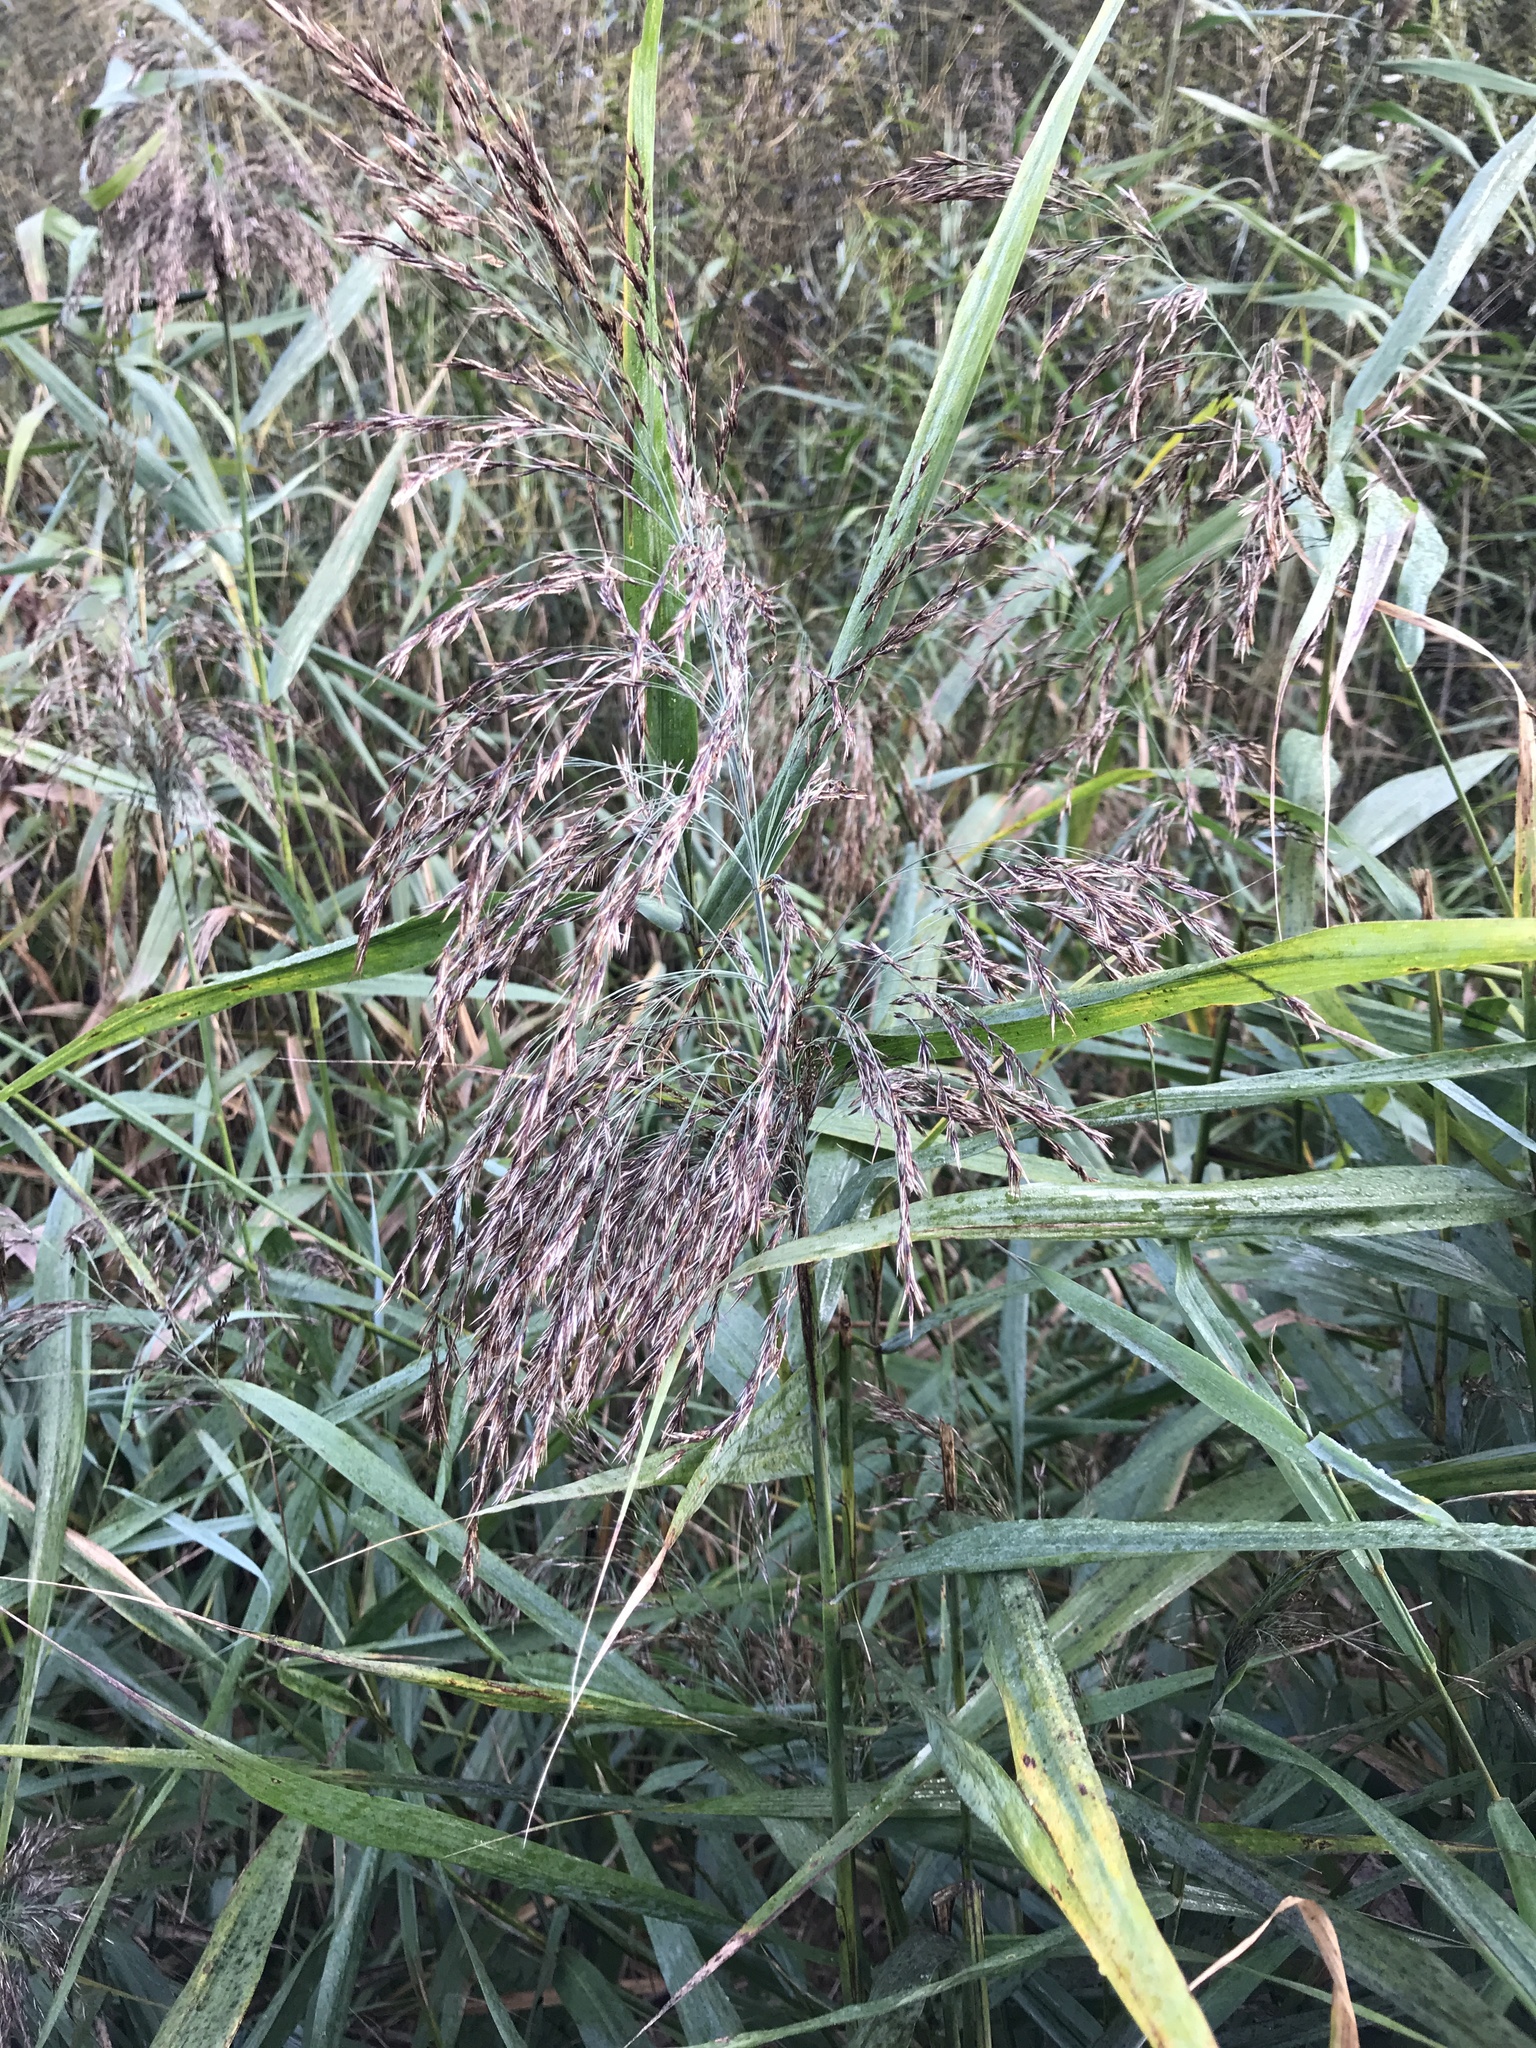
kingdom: Plantae
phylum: Tracheophyta
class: Liliopsida
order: Poales
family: Poaceae
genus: Phragmites
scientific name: Phragmites australis
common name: Common reed
